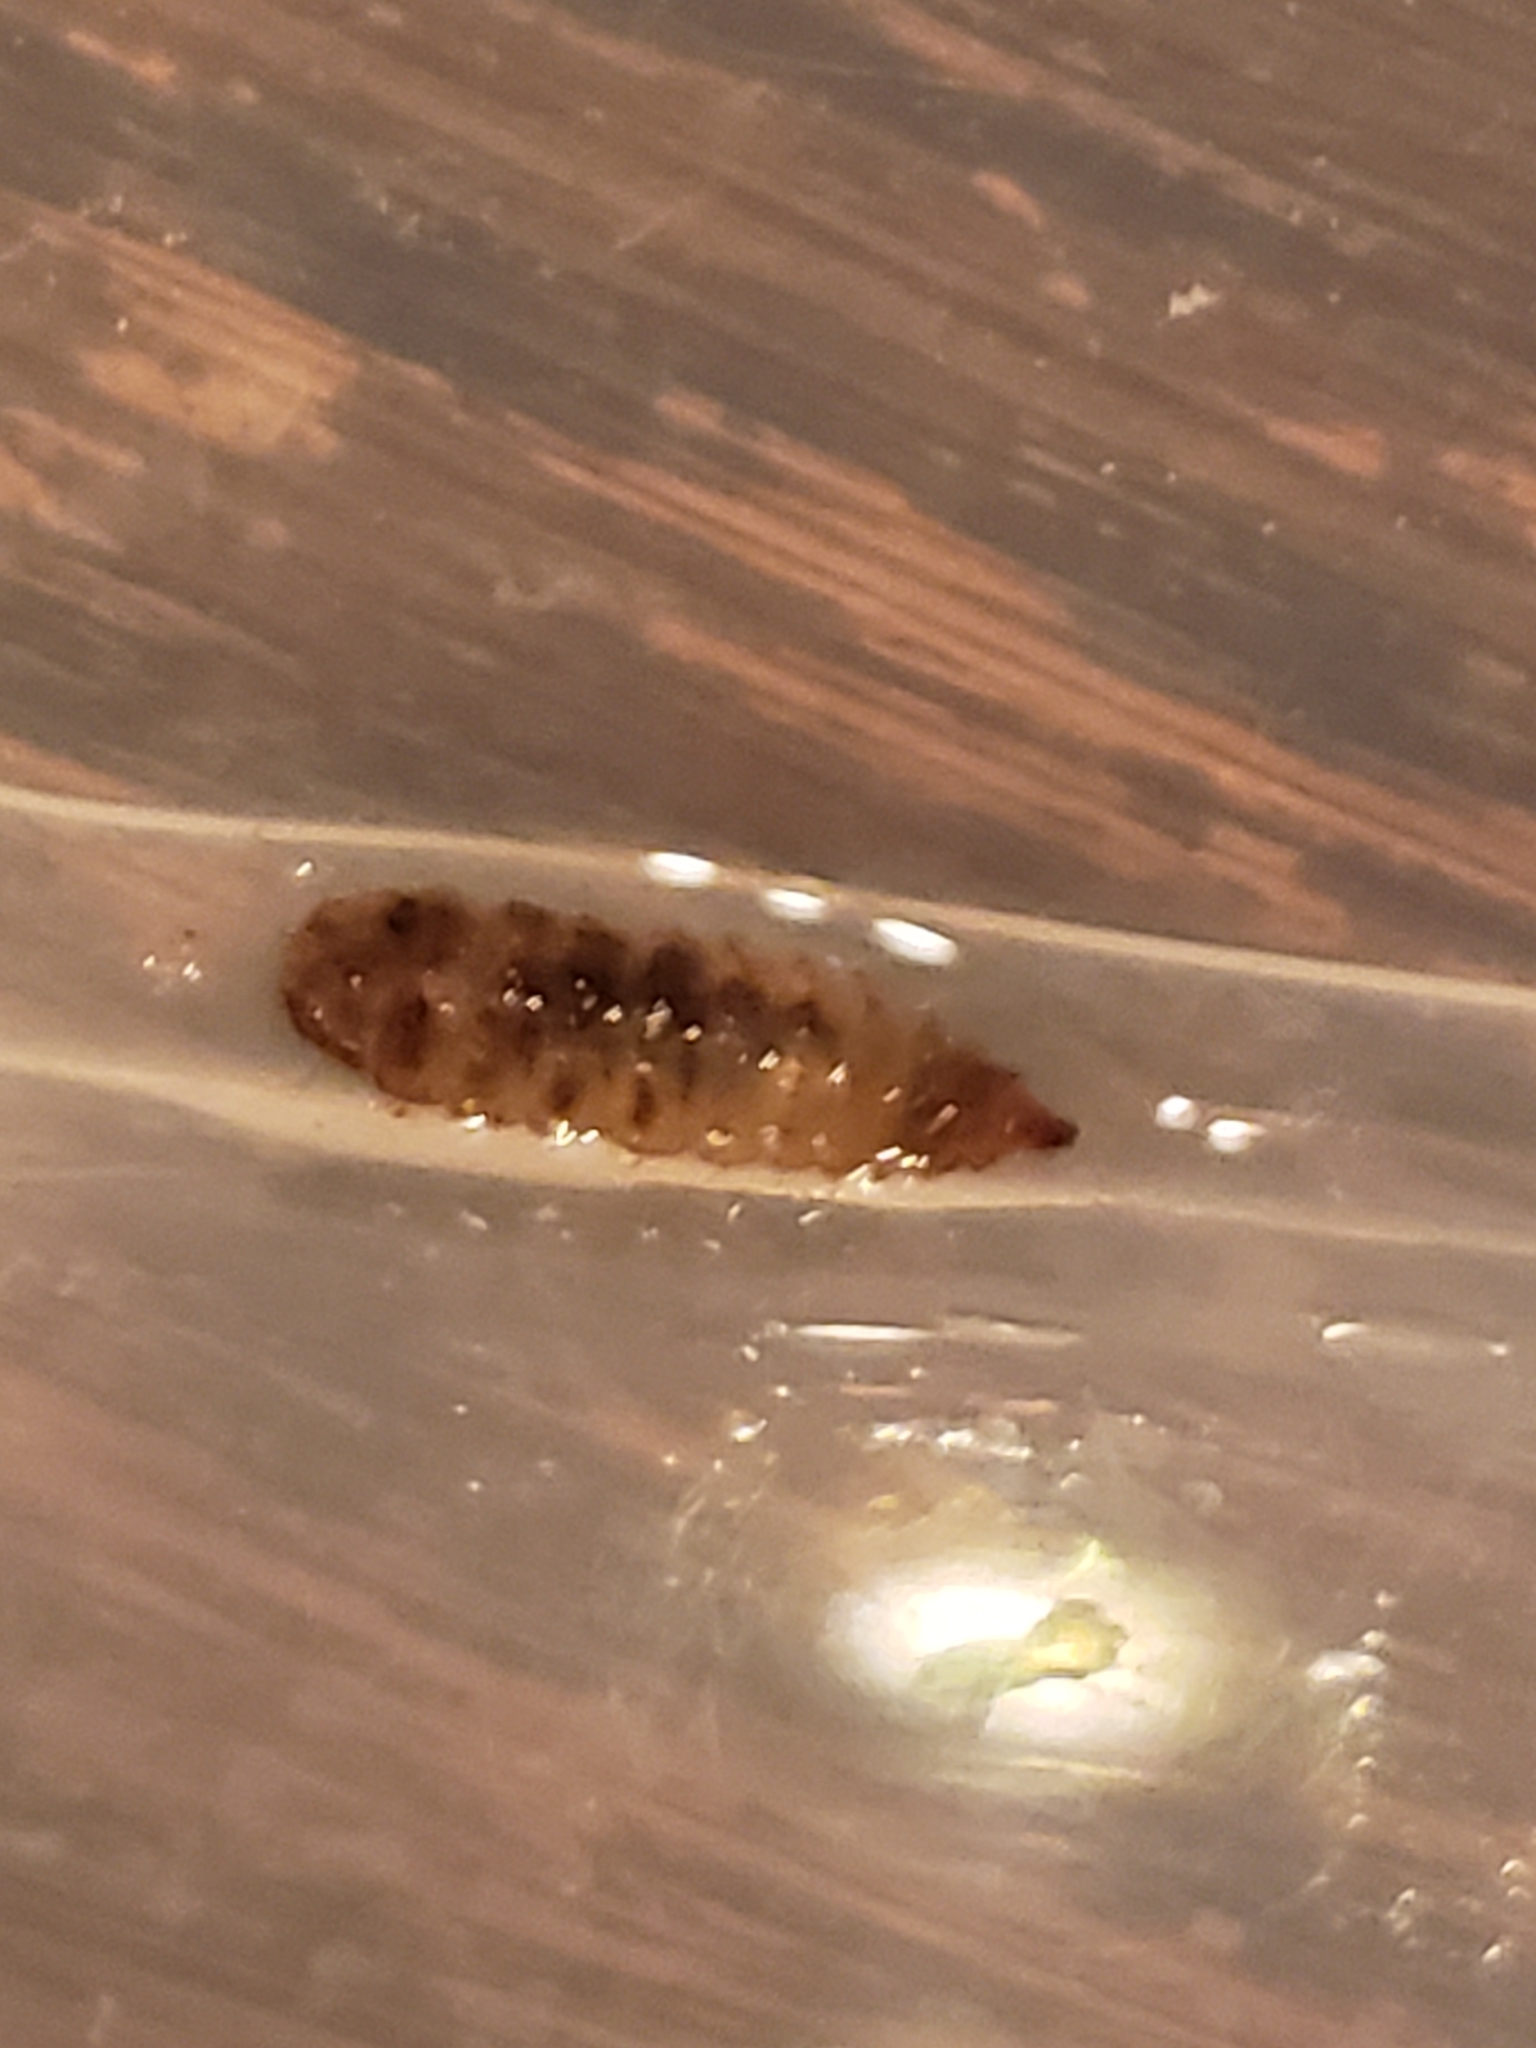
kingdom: Animalia
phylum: Arthropoda
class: Insecta
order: Diptera
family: Stratiomyidae
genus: Hermetia
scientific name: Hermetia illucens
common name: Black soldier fly
